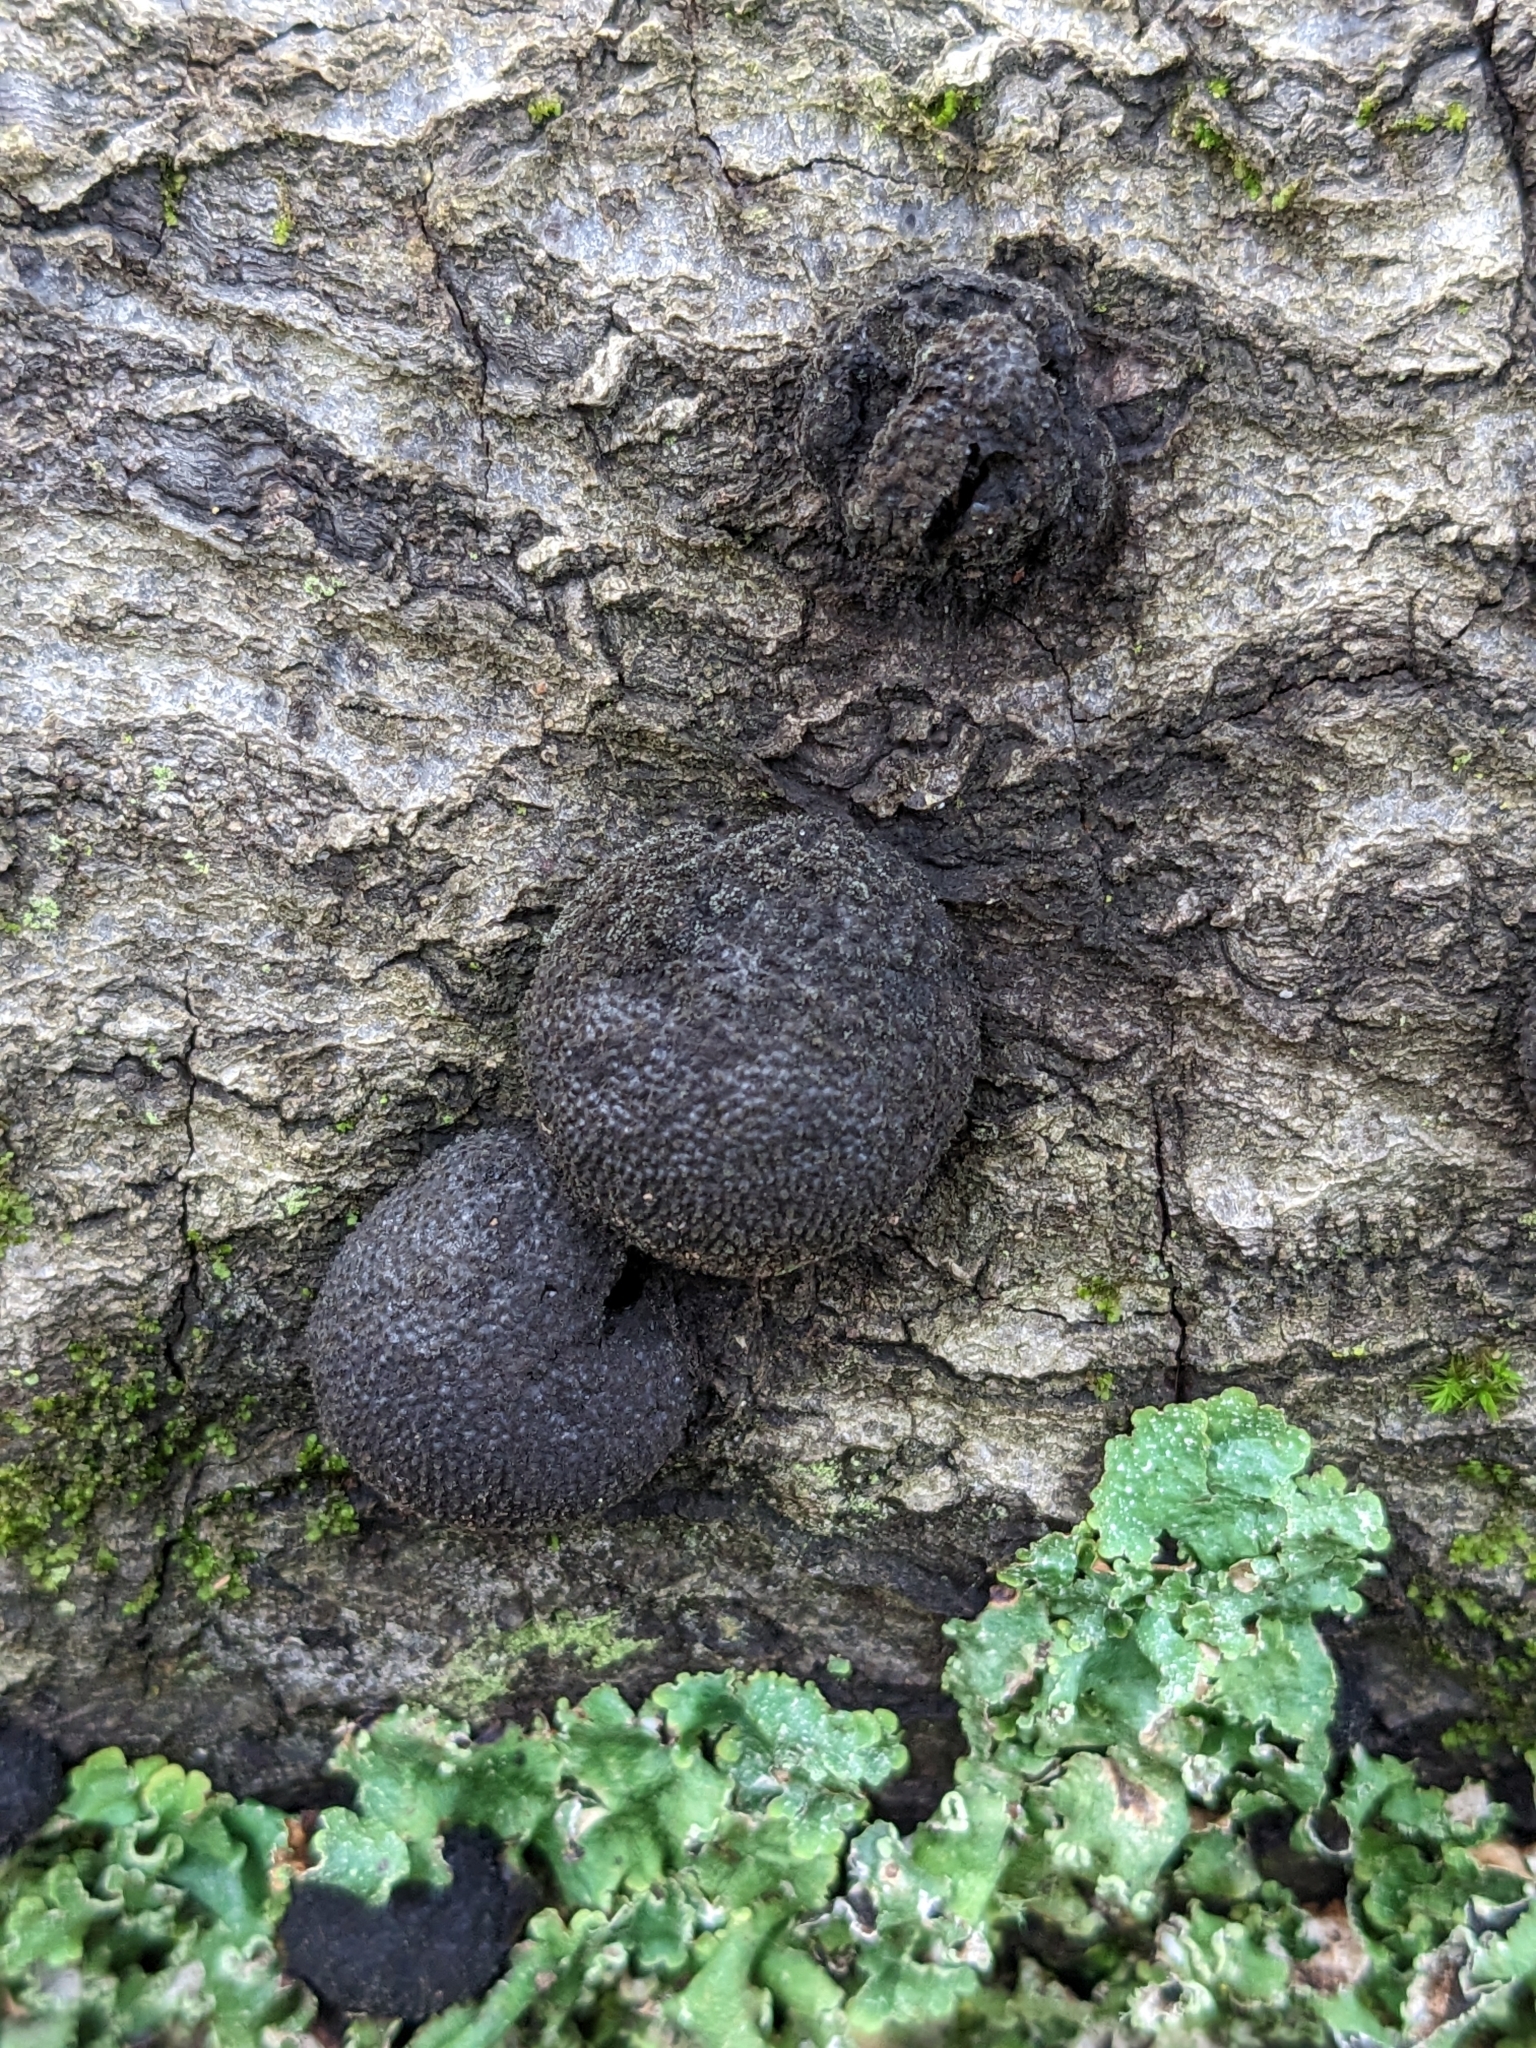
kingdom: Fungi
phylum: Ascomycota
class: Sordariomycetes
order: Xylariales
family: Hypoxylaceae
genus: Annulohypoxylon
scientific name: Annulohypoxylon thouarsianum
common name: Cramp balls
